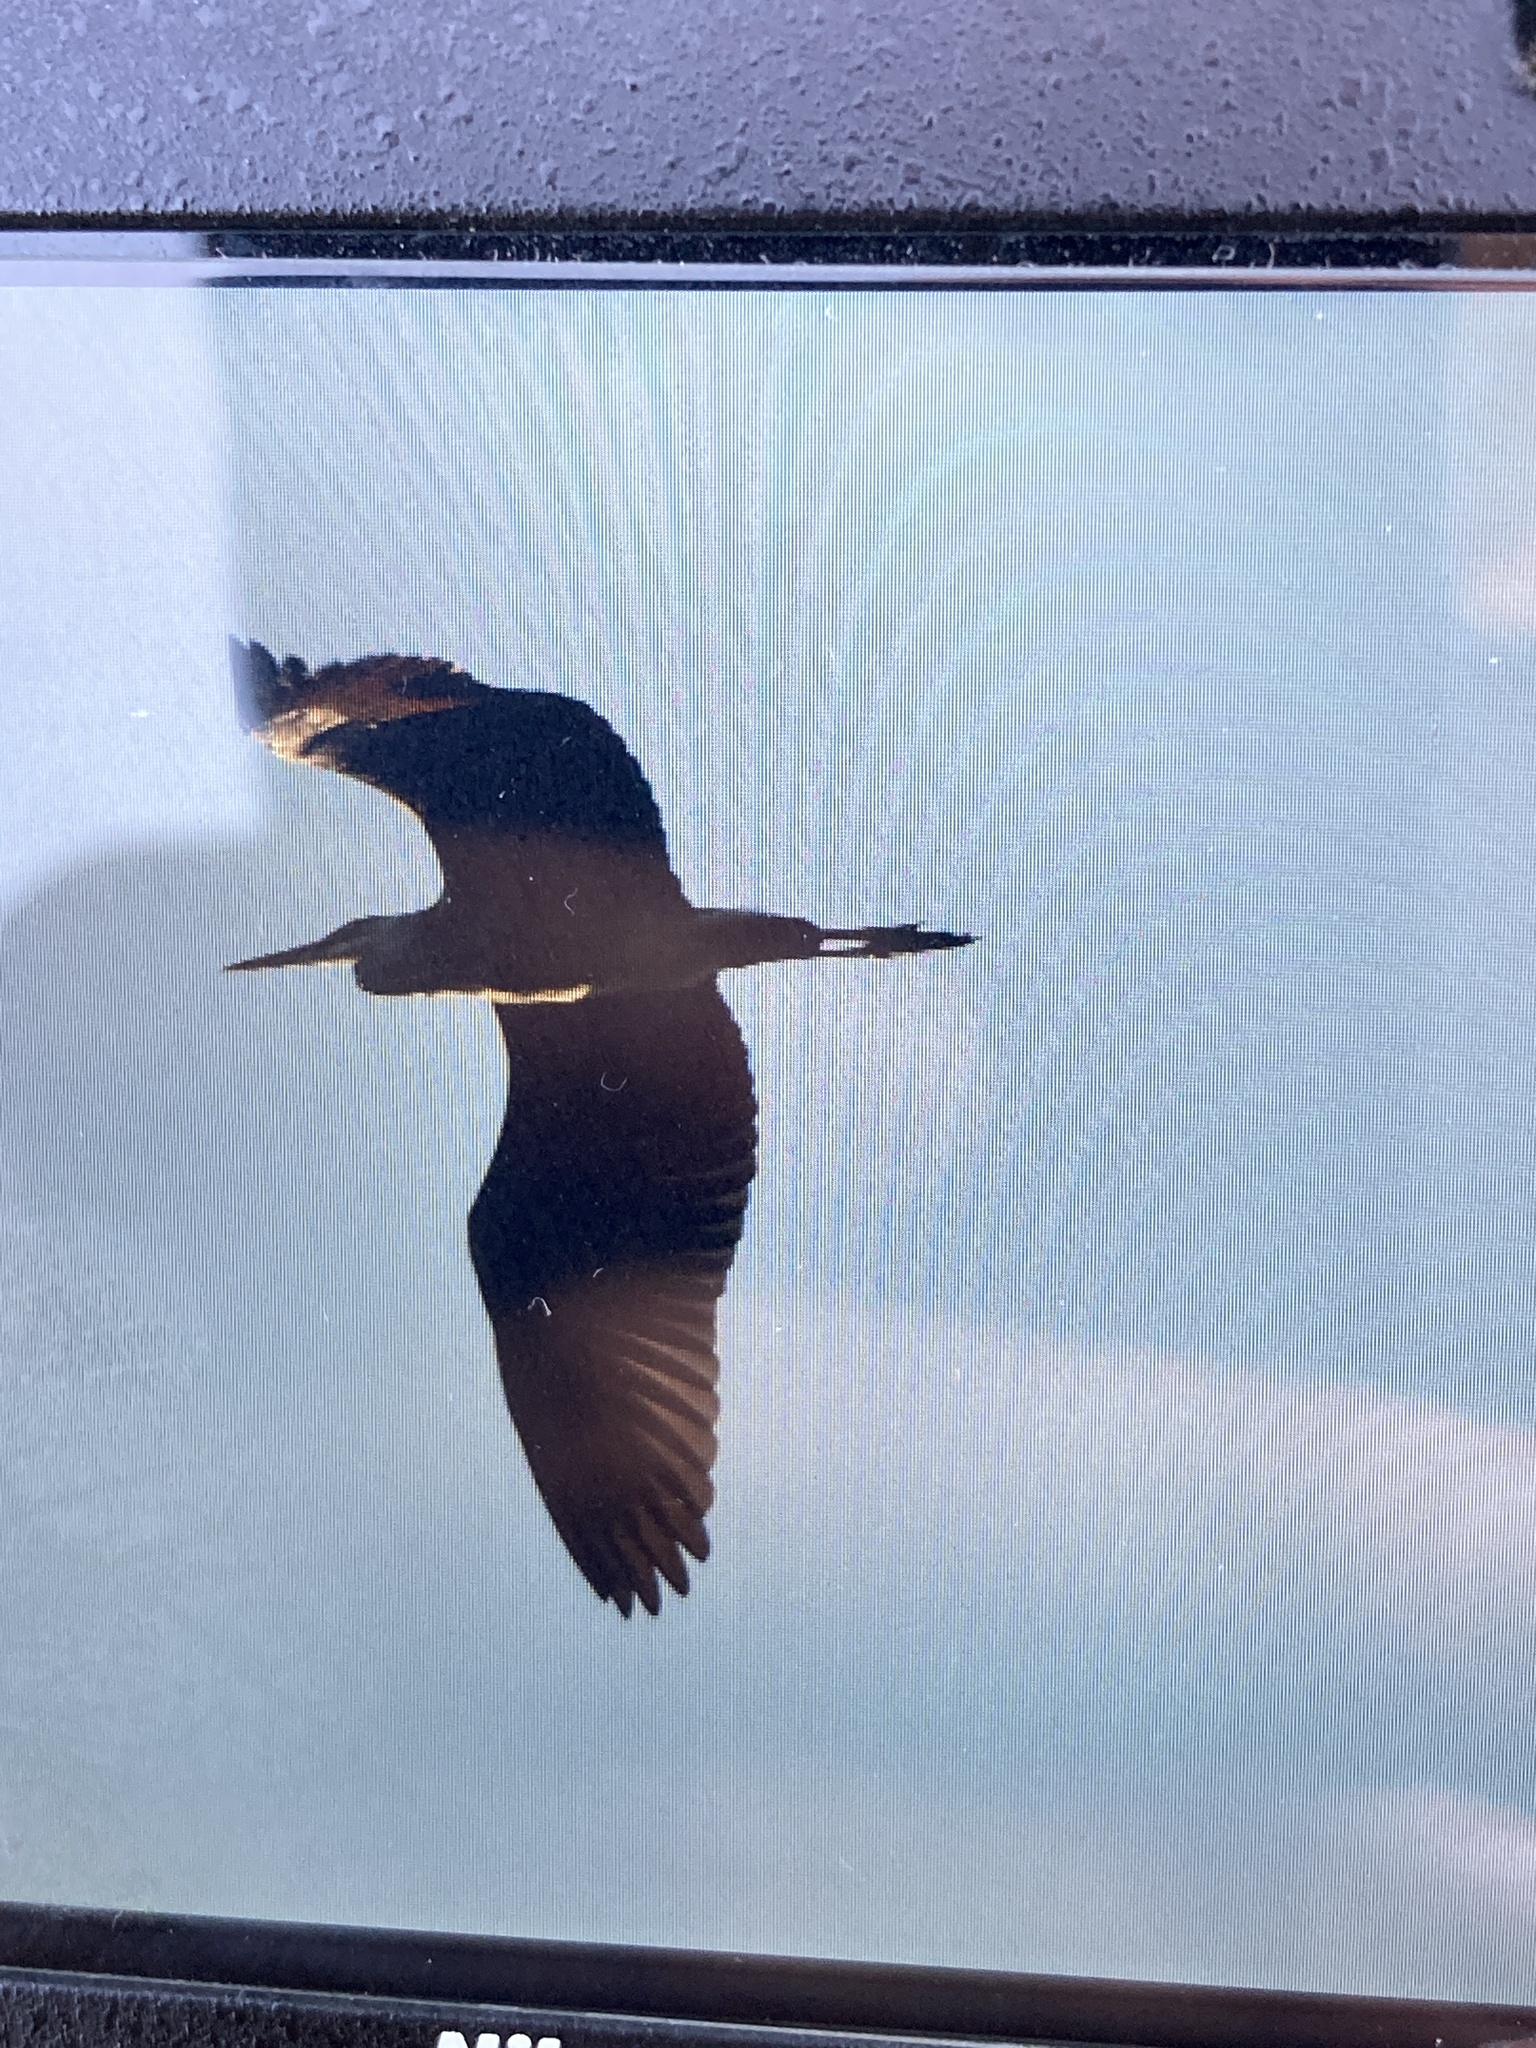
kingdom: Animalia
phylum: Chordata
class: Aves
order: Pelecaniformes
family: Ardeidae
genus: Ardea
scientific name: Ardea cinerea
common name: Grey heron
